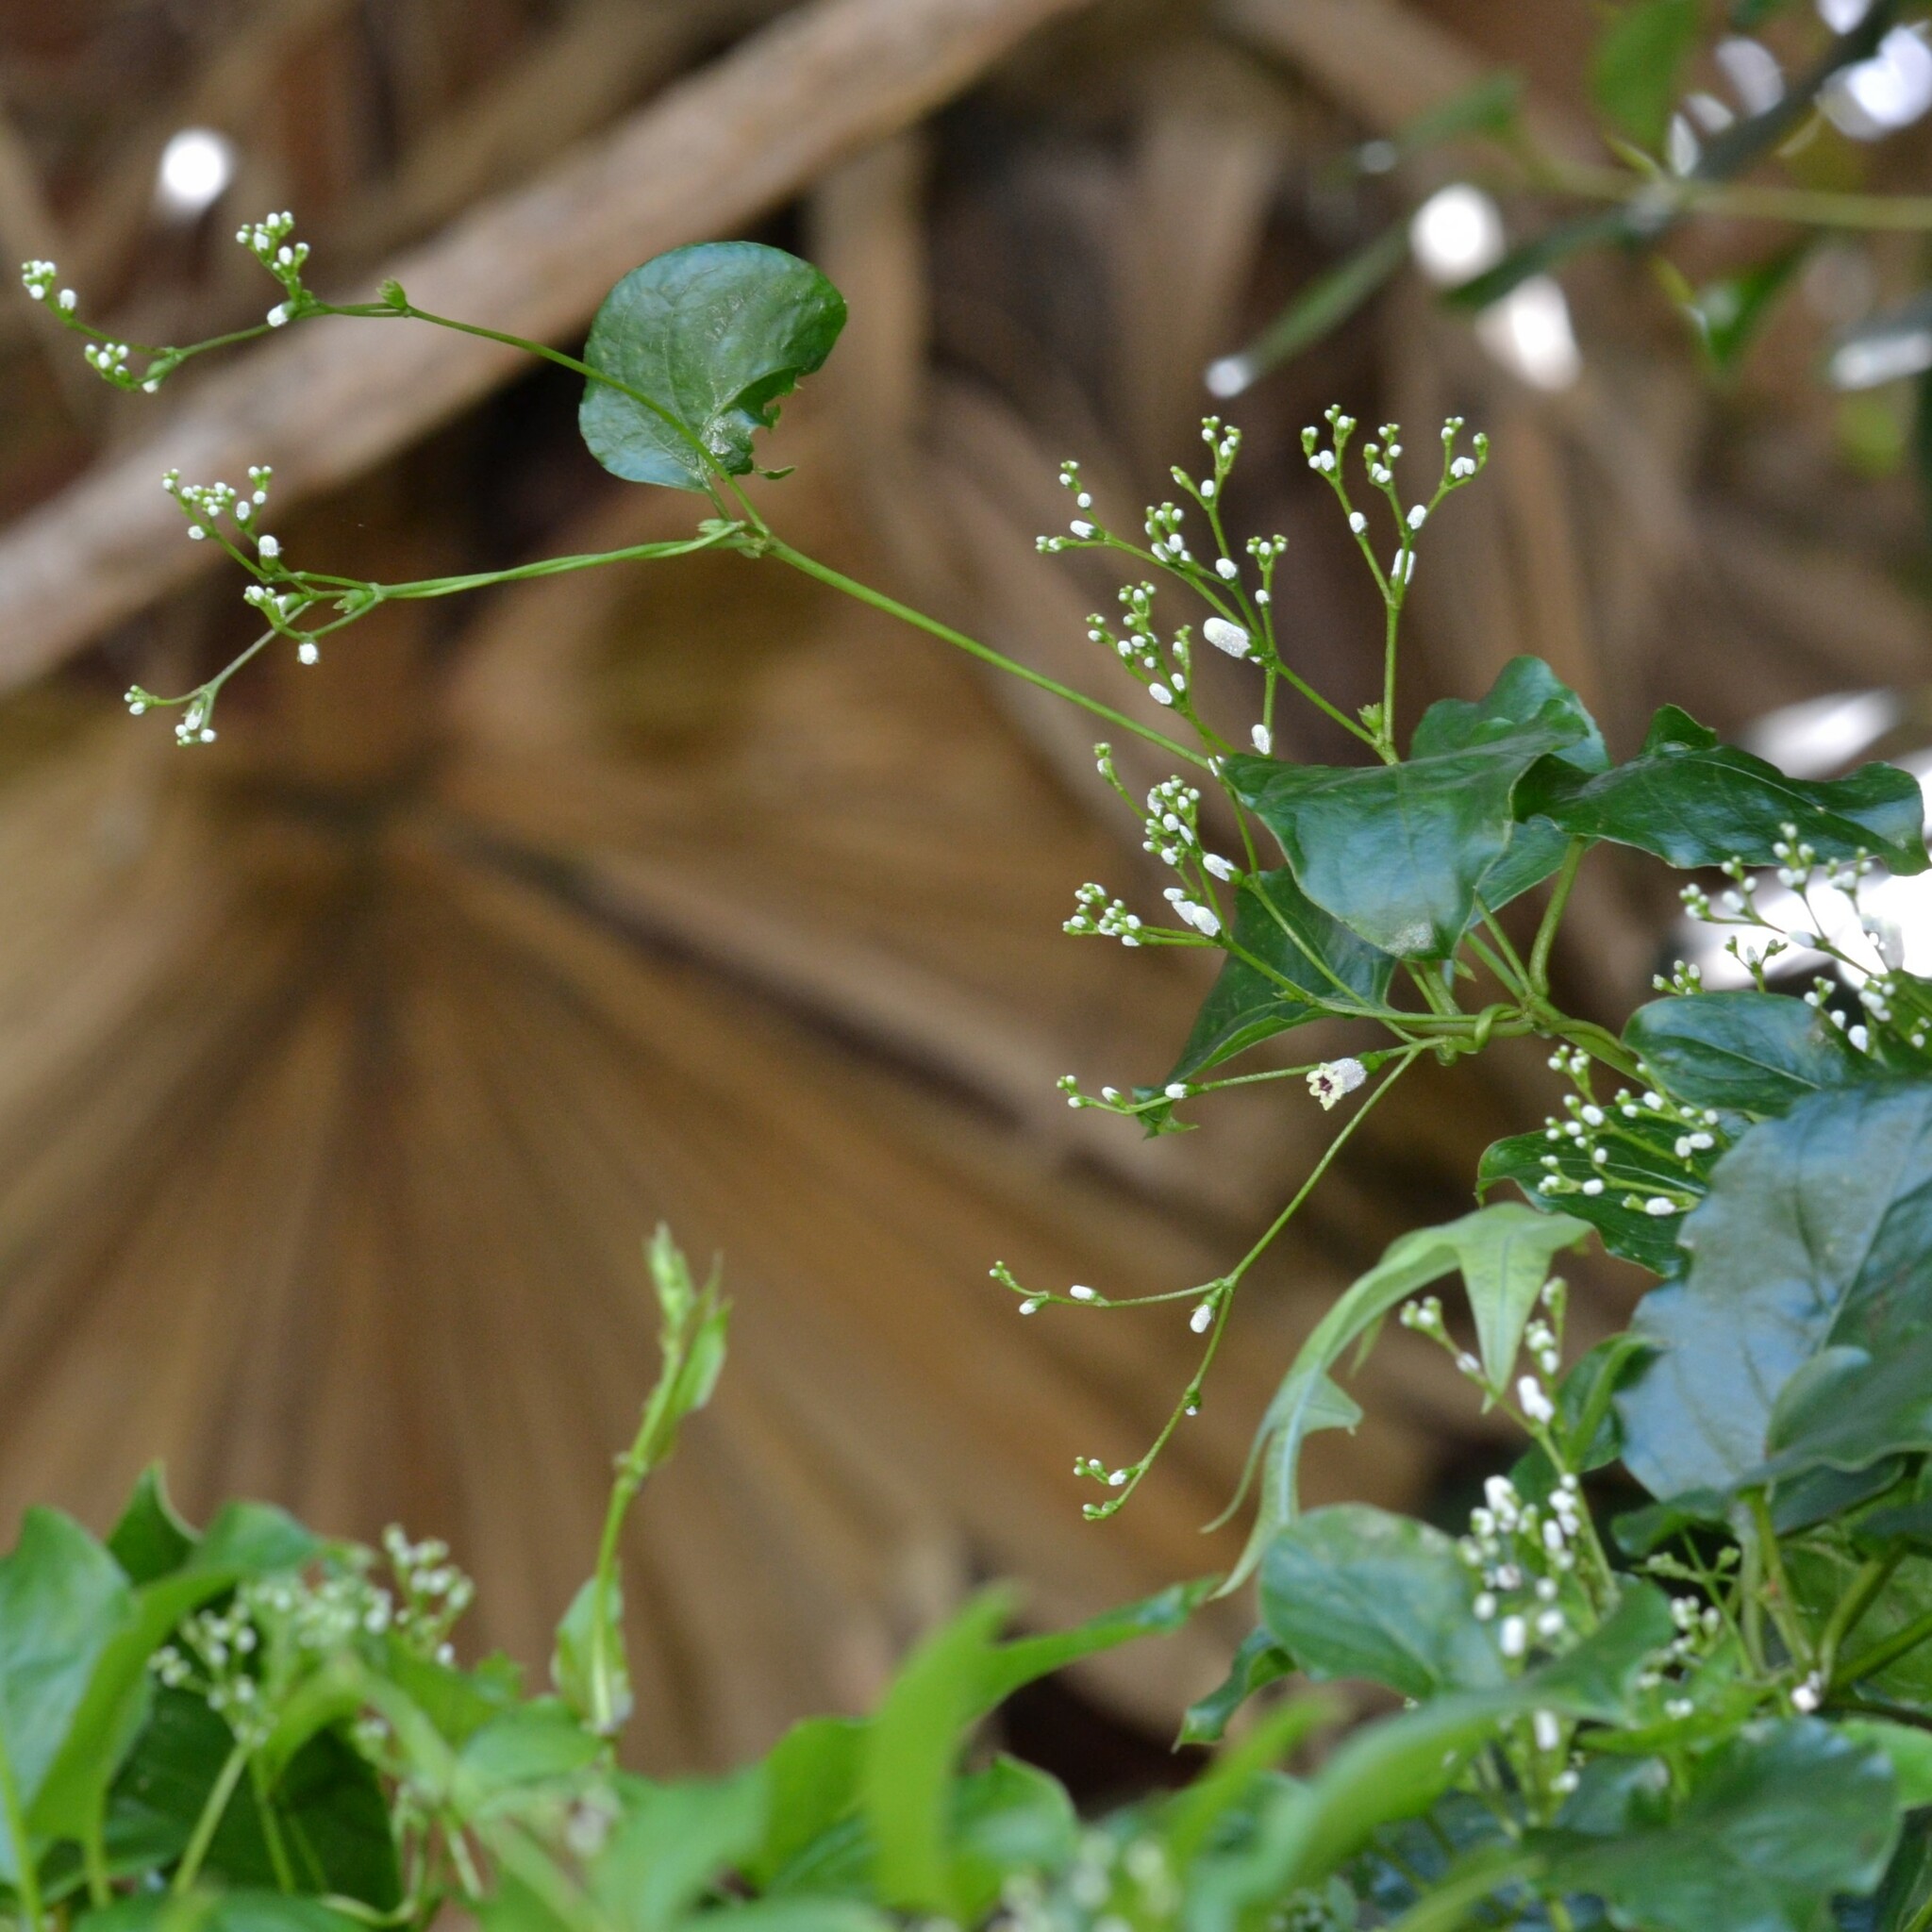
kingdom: Plantae
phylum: Tracheophyta
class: Magnoliopsida
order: Gentianales
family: Rubiaceae
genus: Paederia
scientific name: Paederia foetida
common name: Stinkvine
